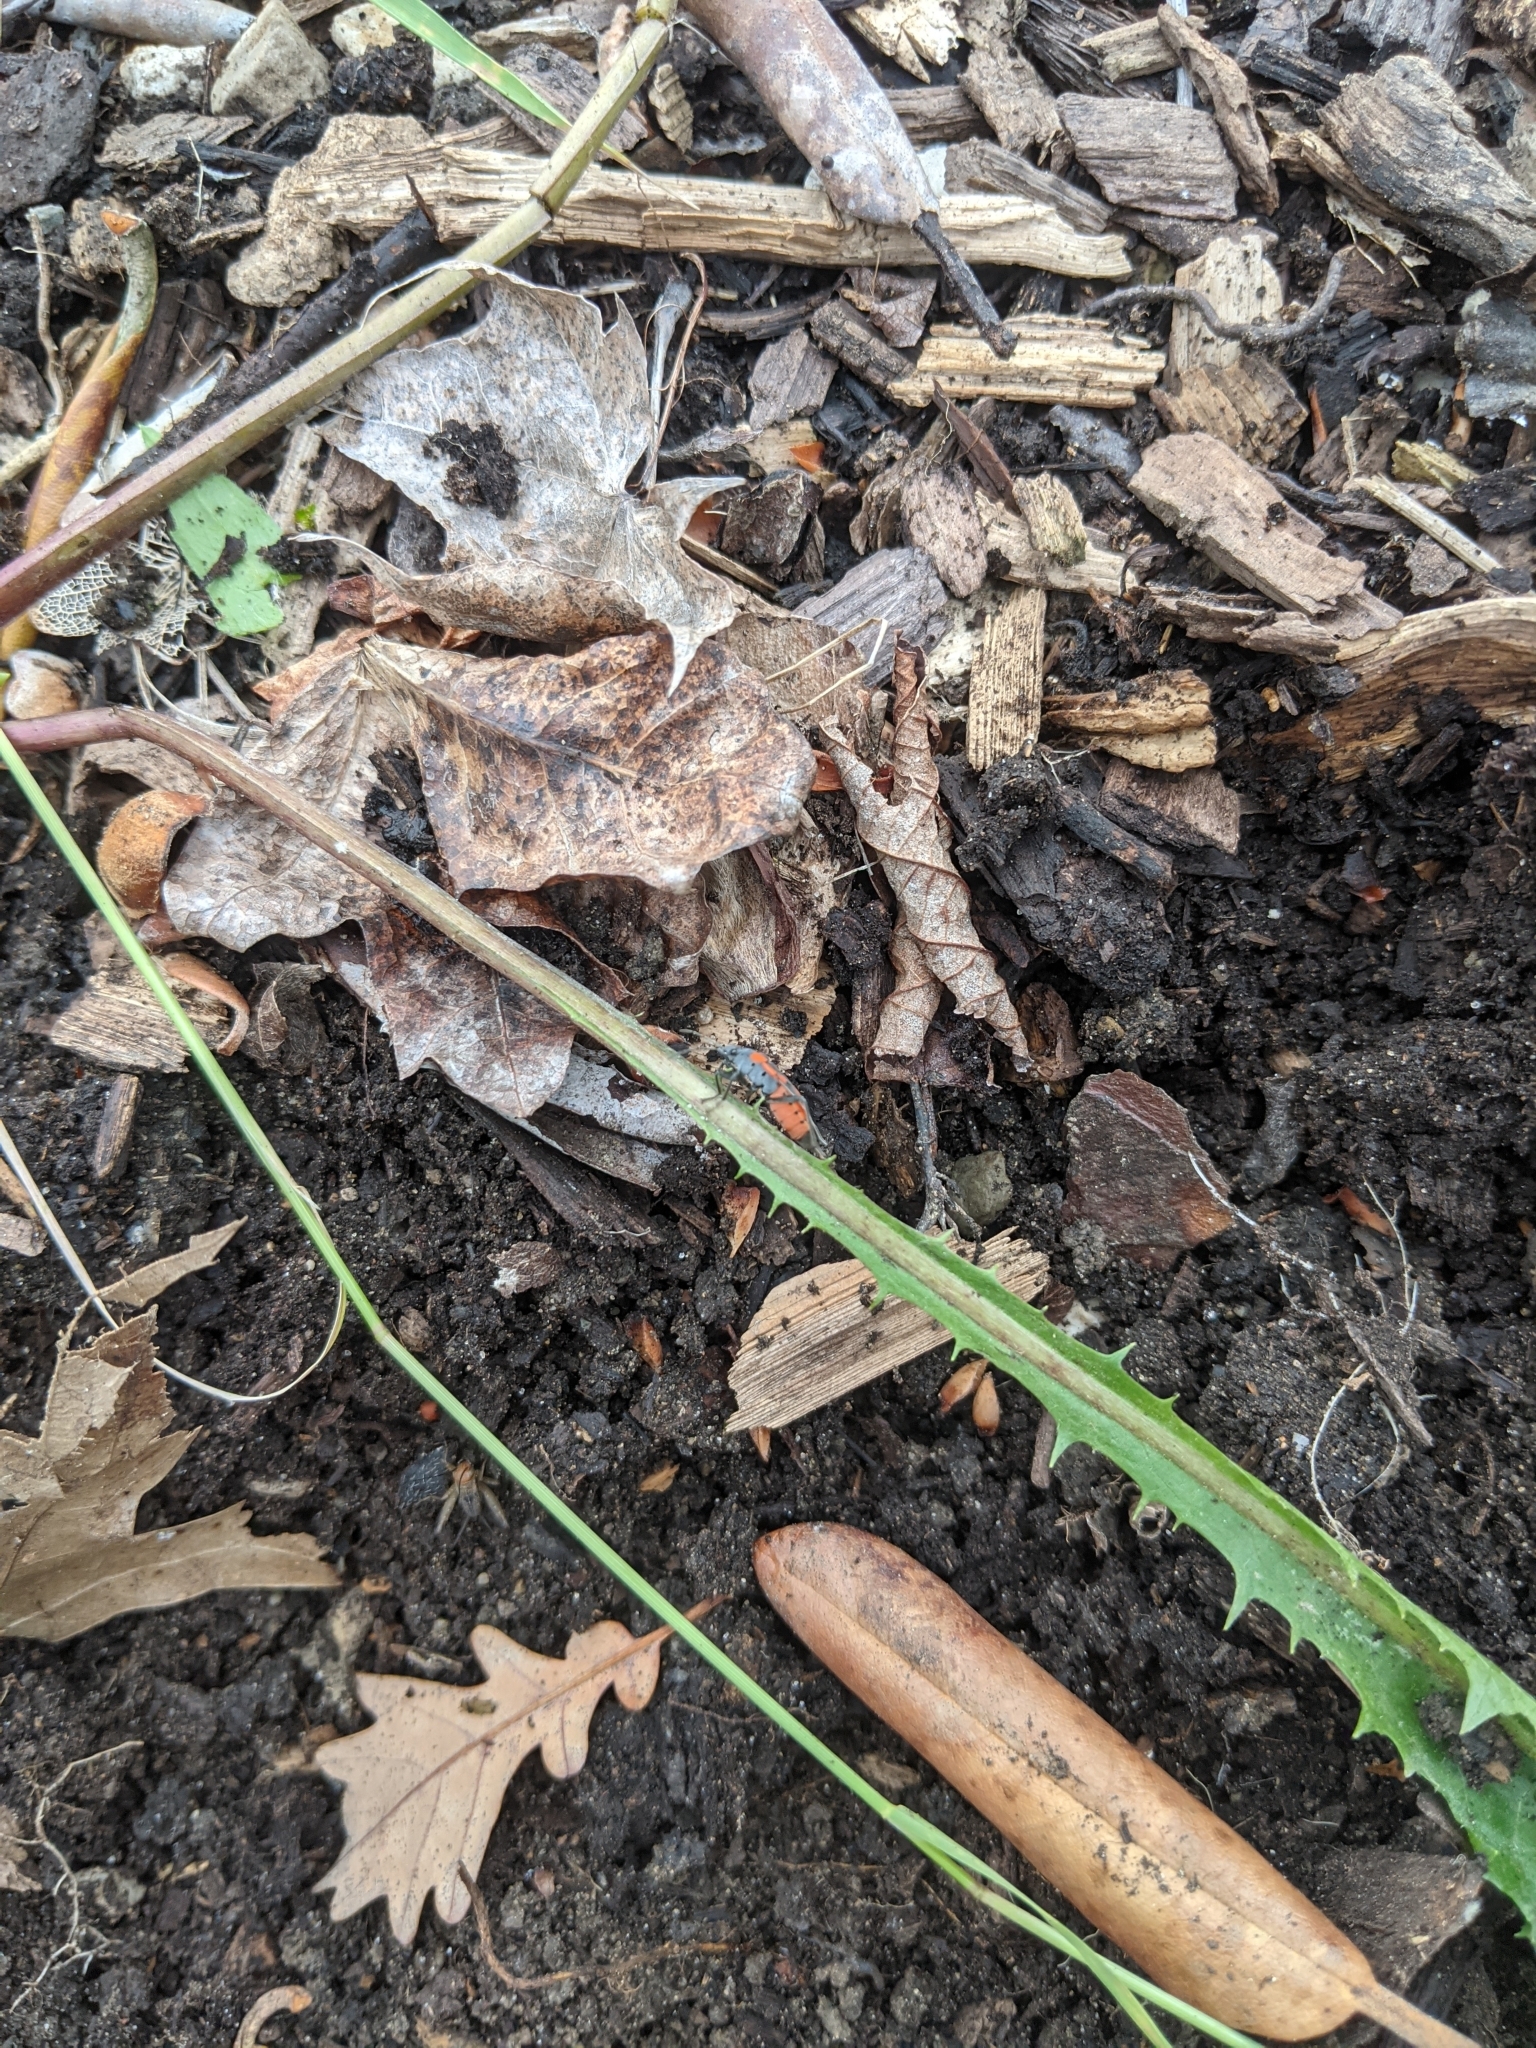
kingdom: Animalia
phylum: Arthropoda
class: Insecta
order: Hemiptera
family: Lygaeidae
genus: Lygaeus
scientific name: Lygaeus kalmii
